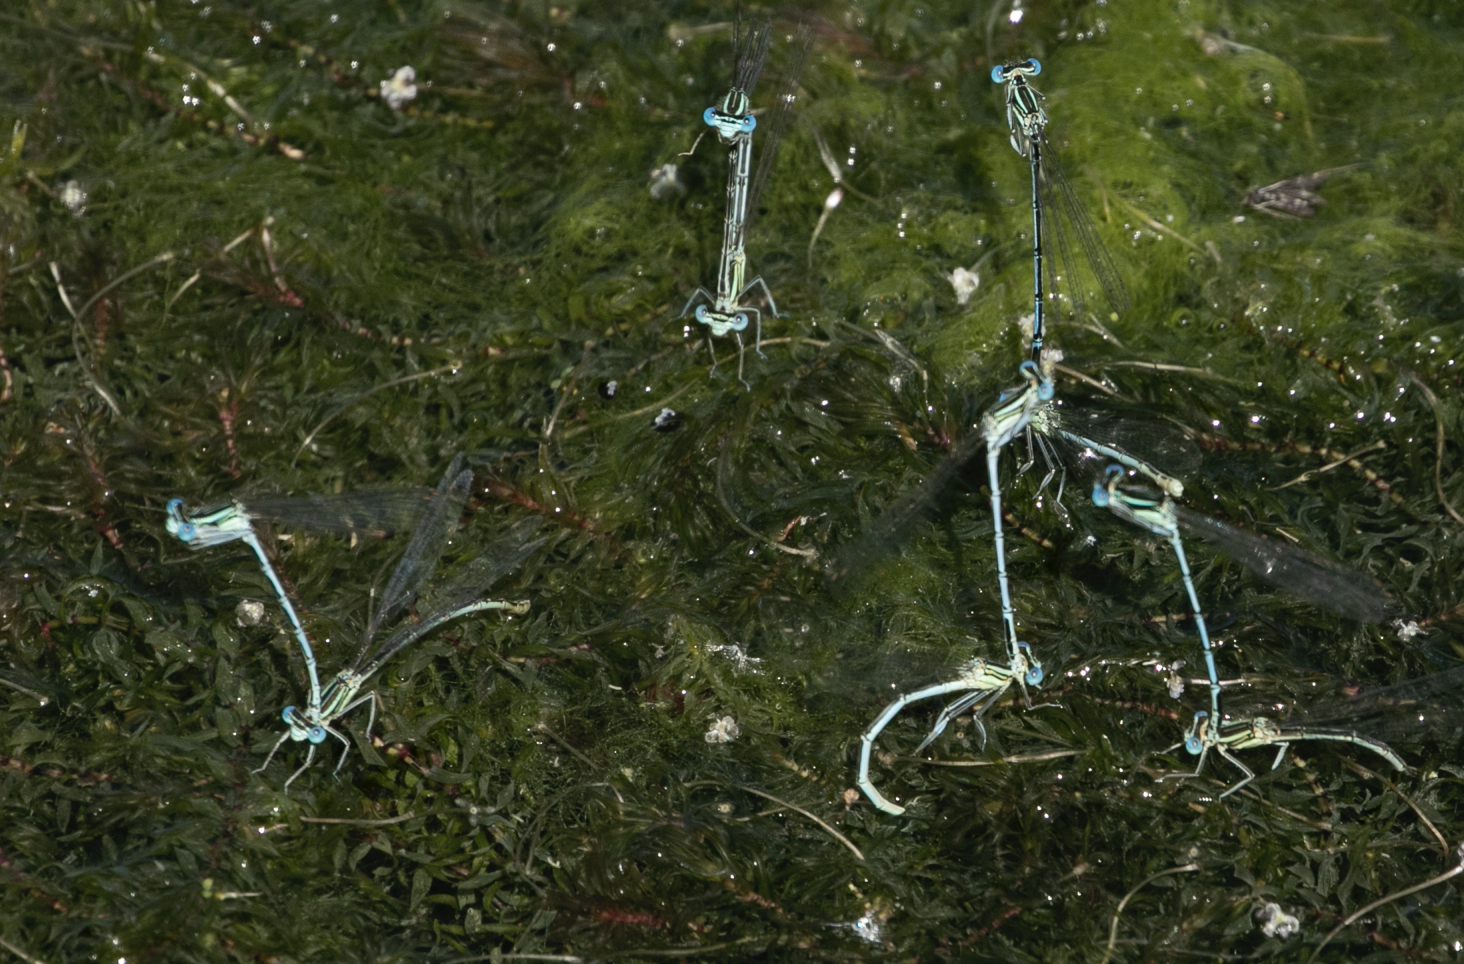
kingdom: Animalia
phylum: Arthropoda
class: Insecta
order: Odonata
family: Platycnemididae
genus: Platycnemis
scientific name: Platycnemis pennipes
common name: White-legged damselfly
